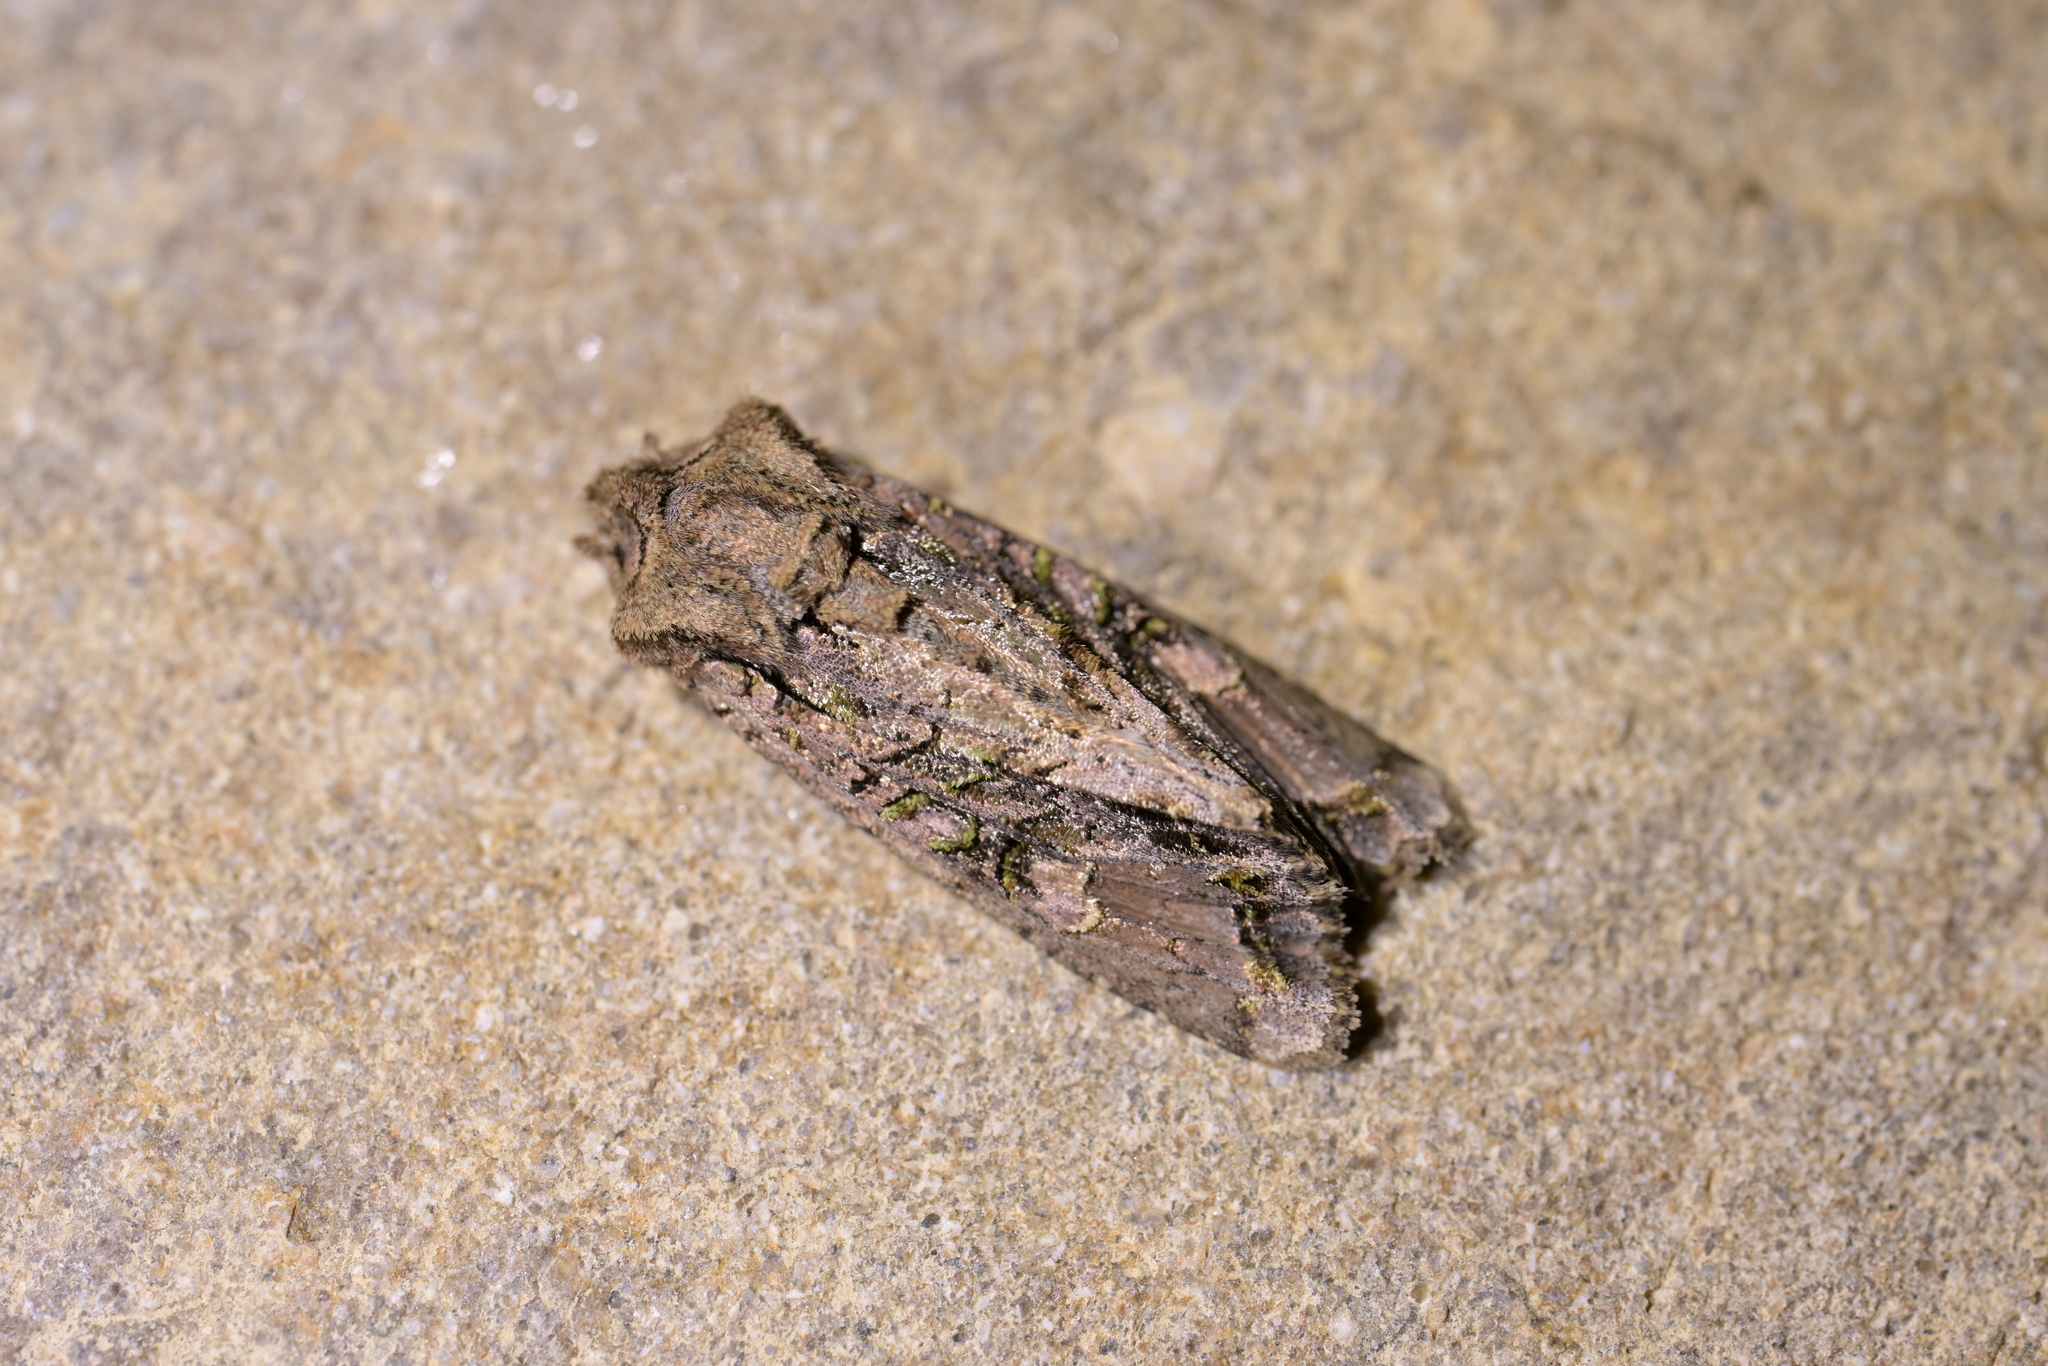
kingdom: Animalia
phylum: Arthropoda
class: Insecta
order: Lepidoptera
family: Noctuidae
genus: Ichneutica
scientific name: Ichneutica insignis
